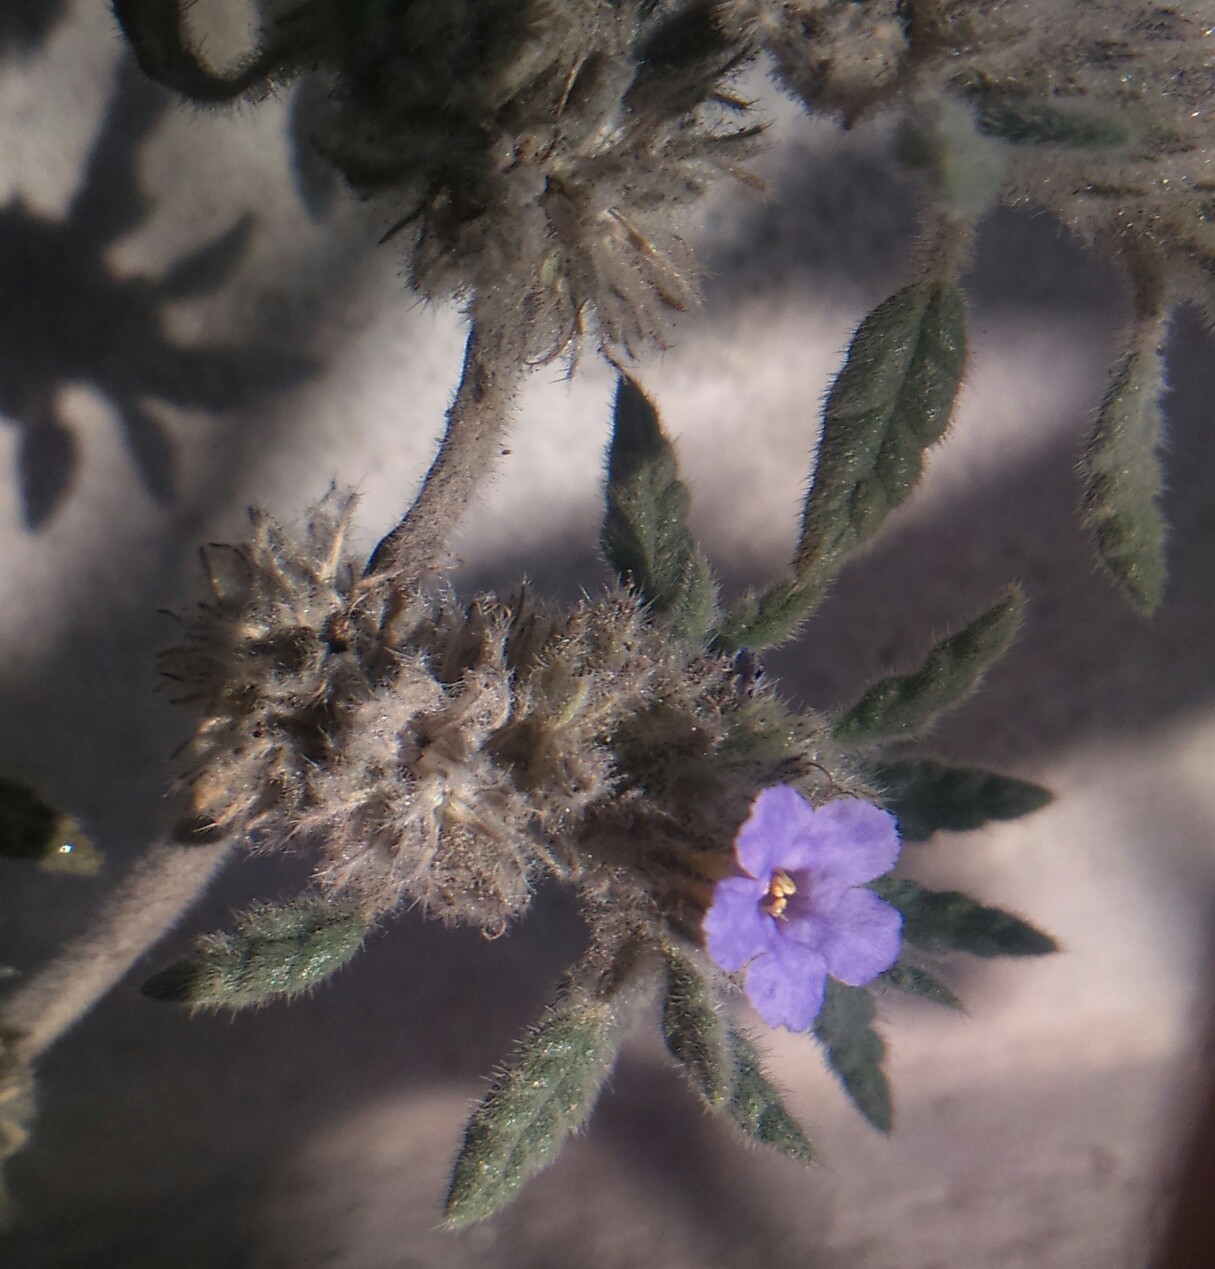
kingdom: Plantae
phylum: Tracheophyta
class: Magnoliopsida
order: Boraginales
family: Ehretiaceae
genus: Tiquilia
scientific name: Tiquilia elongata
